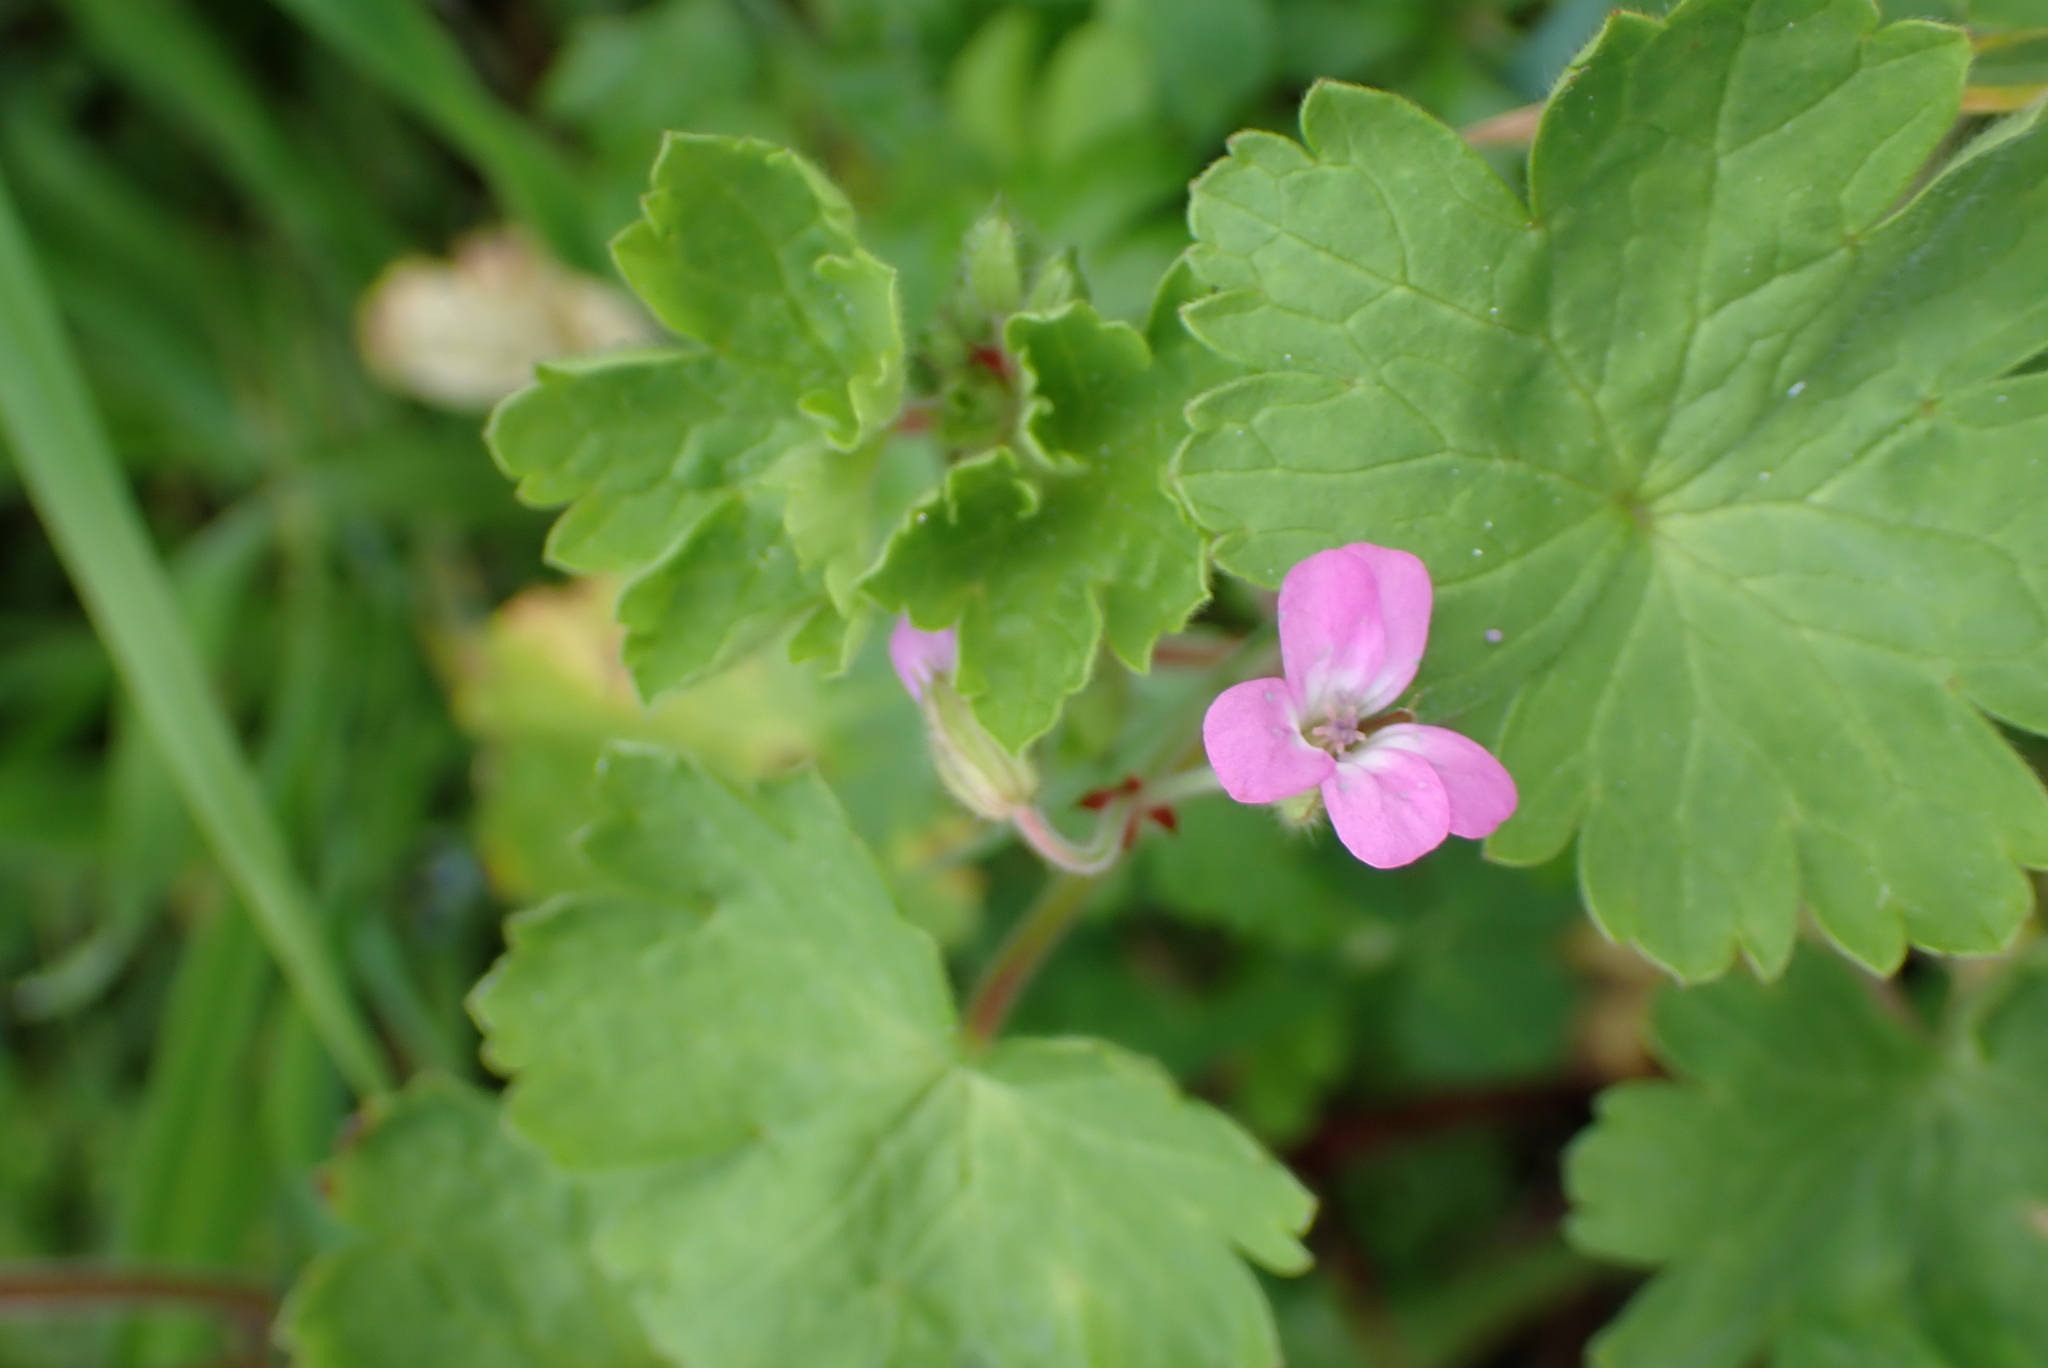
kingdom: Plantae
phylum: Tracheophyta
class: Magnoliopsida
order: Geraniales
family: Geraniaceae
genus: Geranium
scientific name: Geranium rotundifolium
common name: Round-leaved crane's-bill
